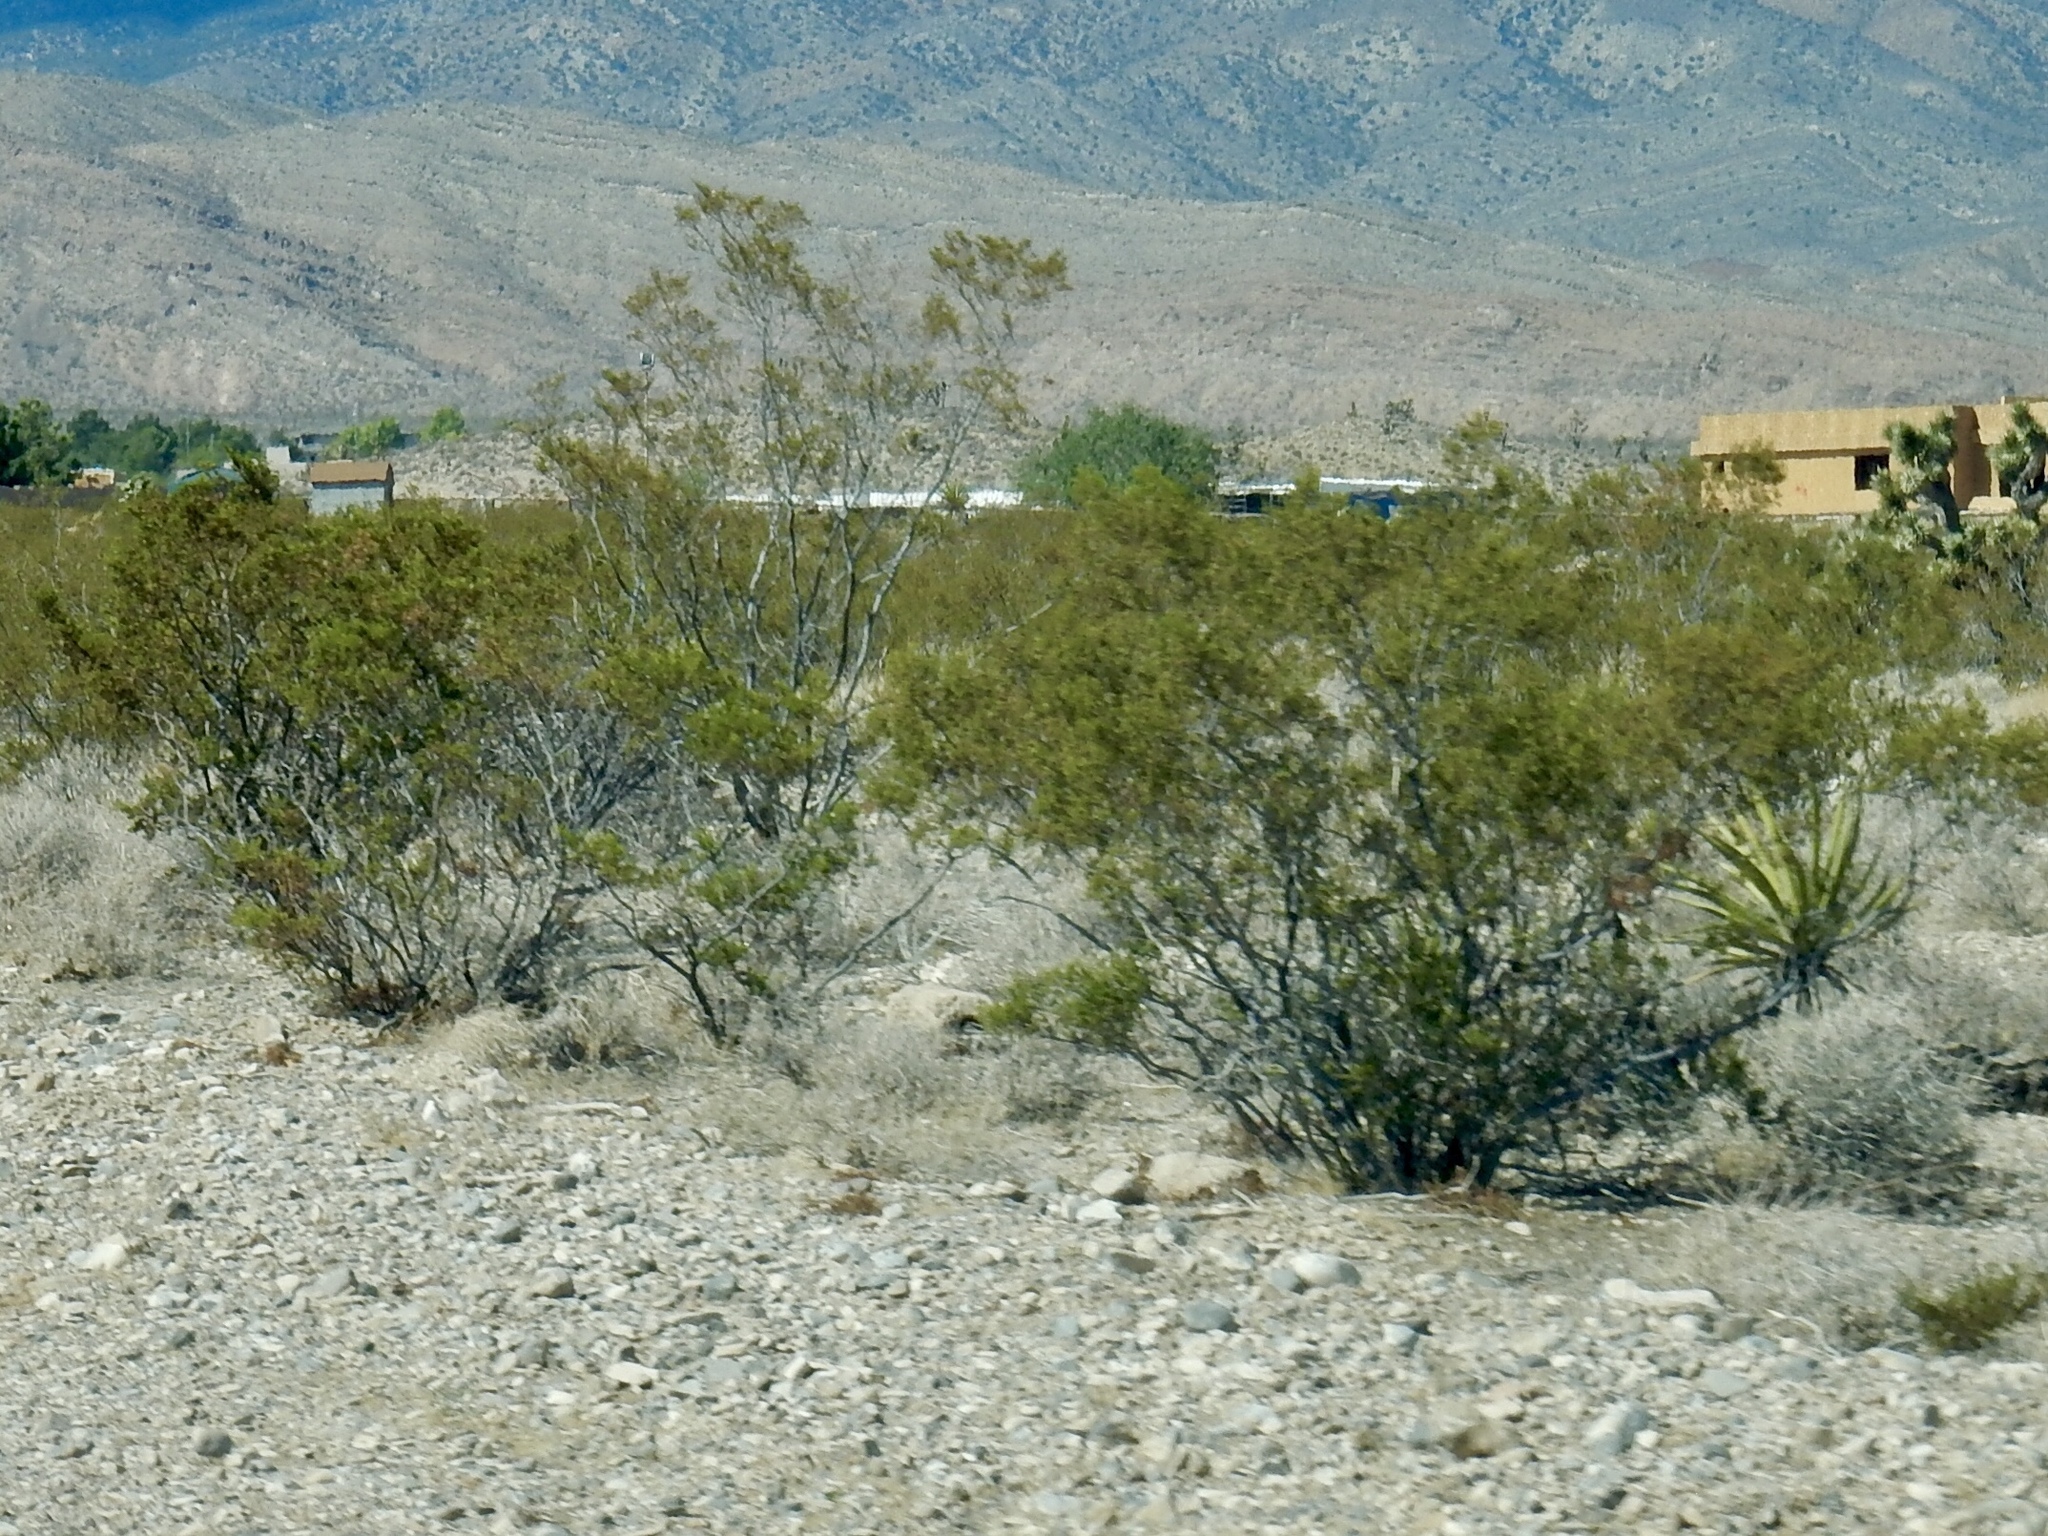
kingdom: Plantae
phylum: Tracheophyta
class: Magnoliopsida
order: Zygophyllales
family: Zygophyllaceae
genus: Larrea
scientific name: Larrea tridentata
